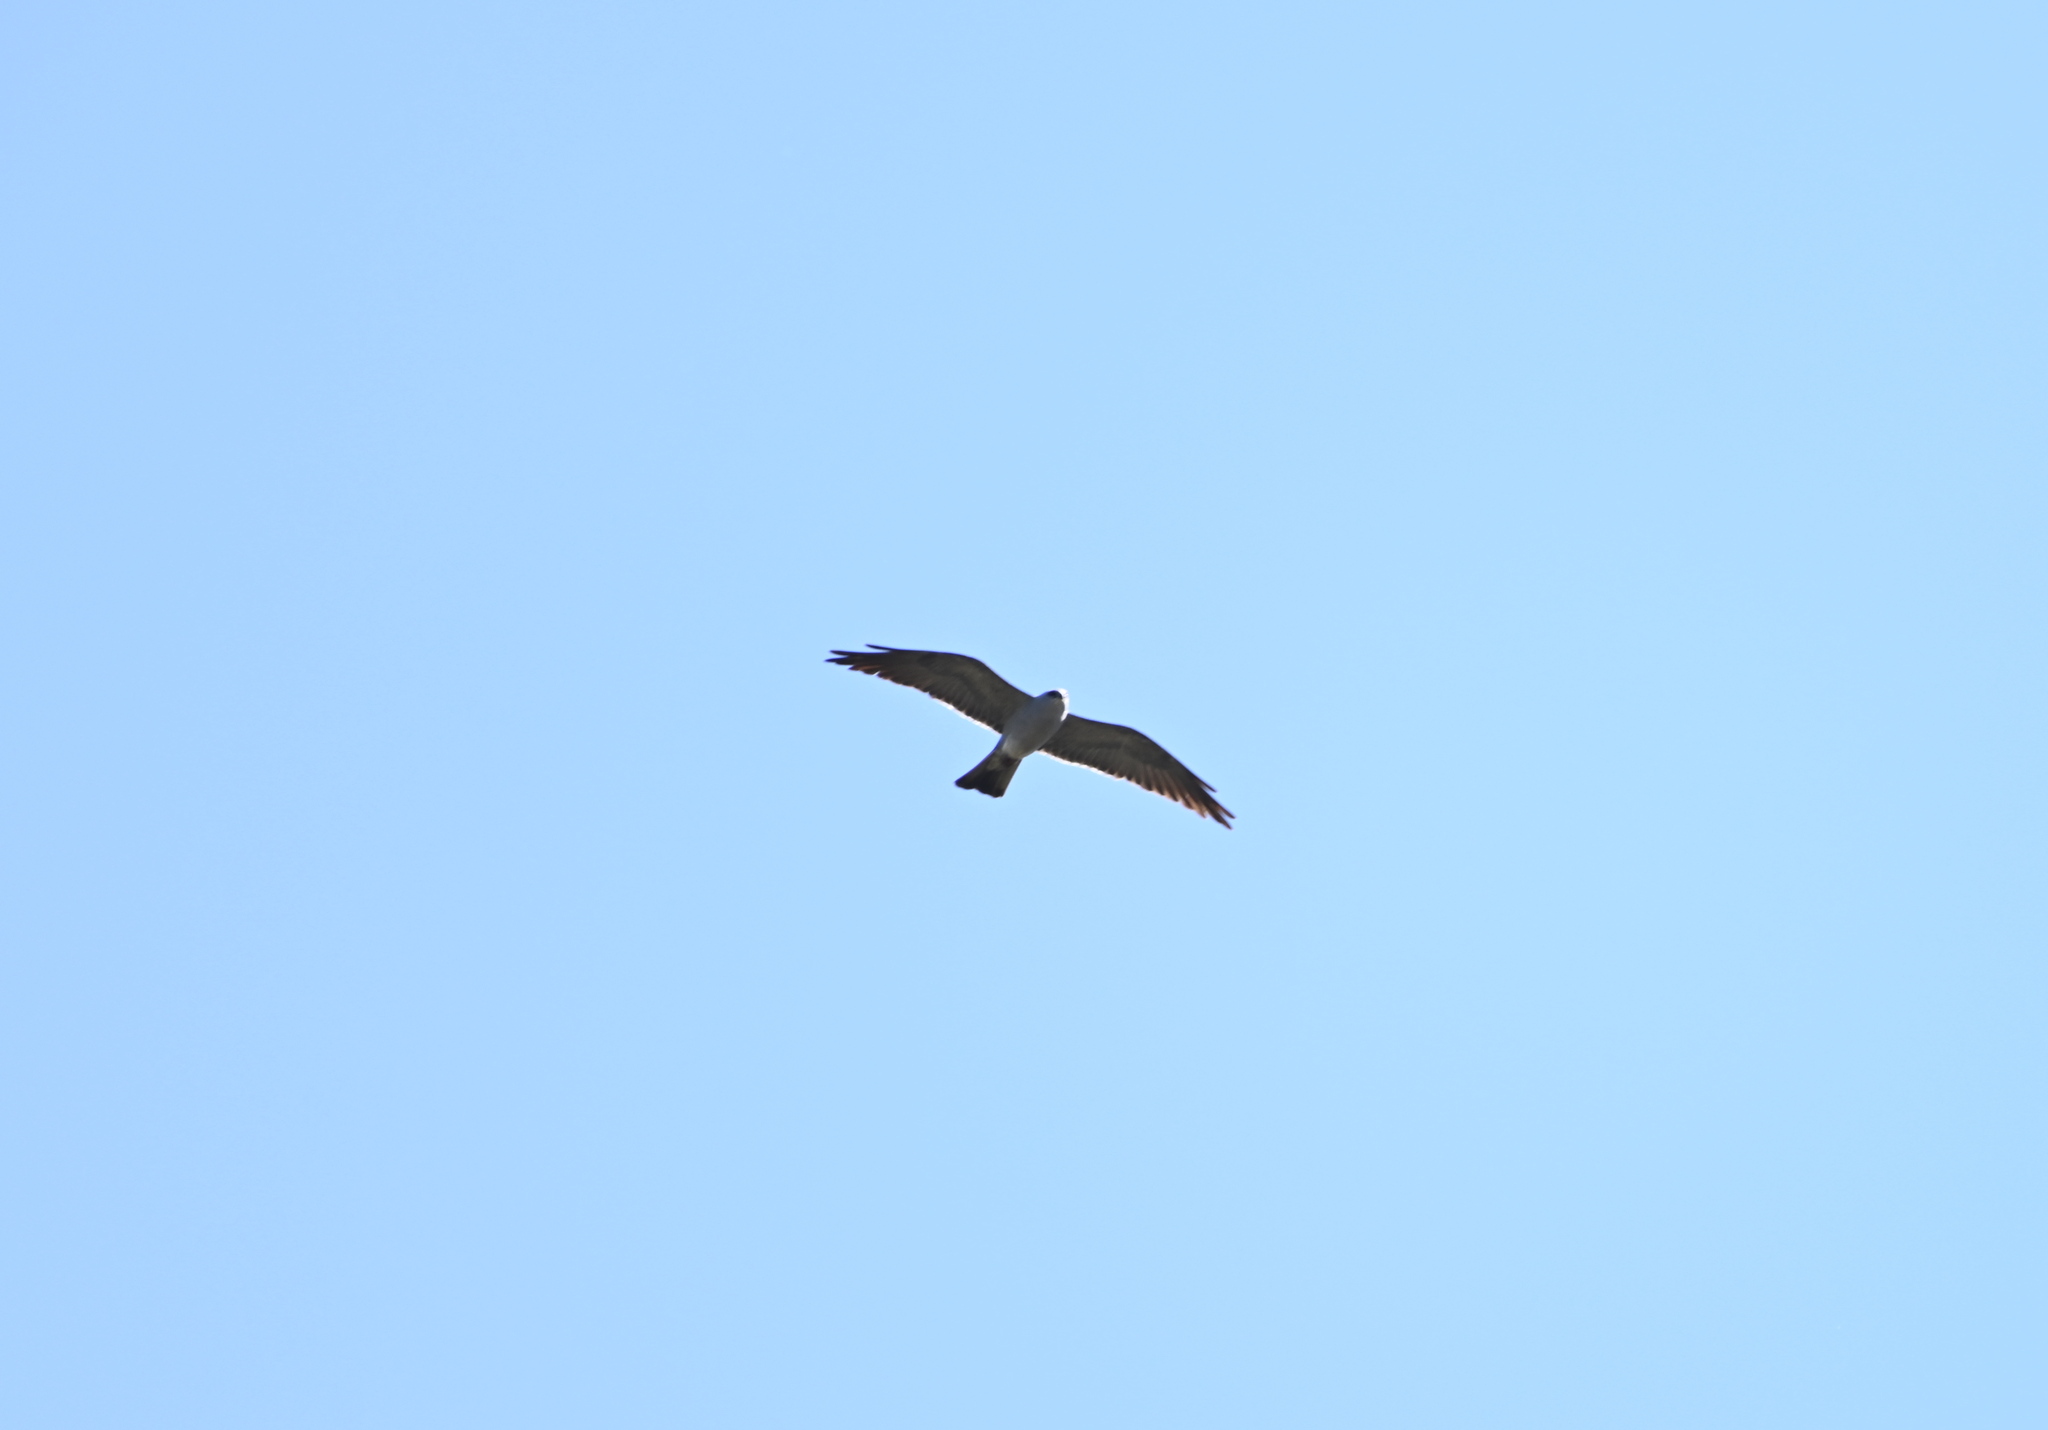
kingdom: Animalia
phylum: Chordata
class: Aves
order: Accipitriformes
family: Accipitridae
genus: Ictinia
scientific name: Ictinia mississippiensis
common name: Mississippi kite
